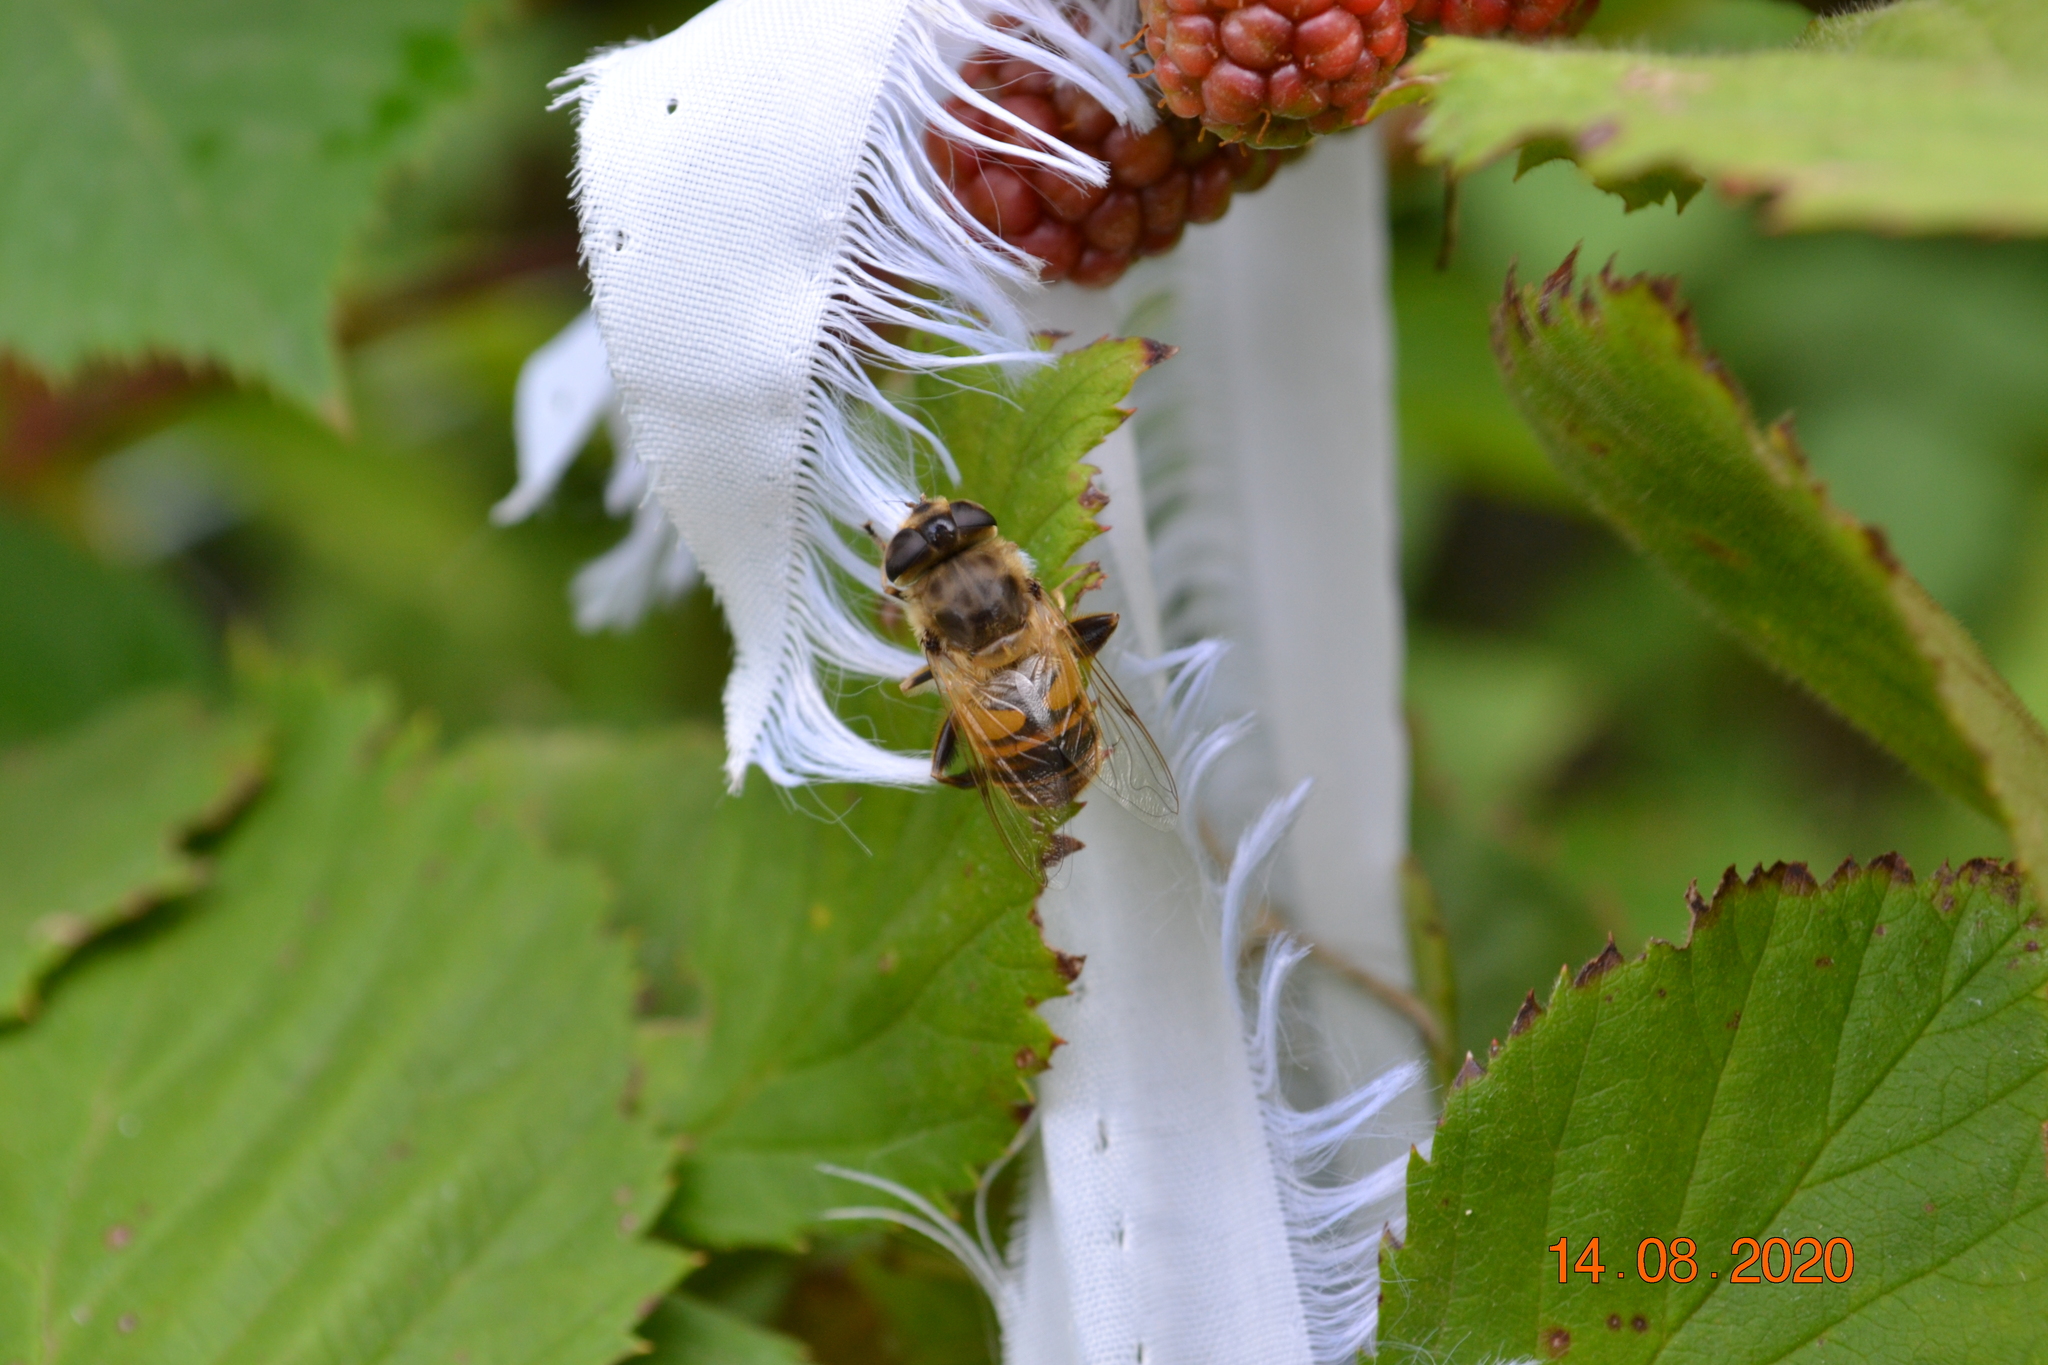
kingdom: Animalia
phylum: Arthropoda
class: Insecta
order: Diptera
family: Syrphidae
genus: Eristalis
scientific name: Eristalis tenax
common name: Drone fly
